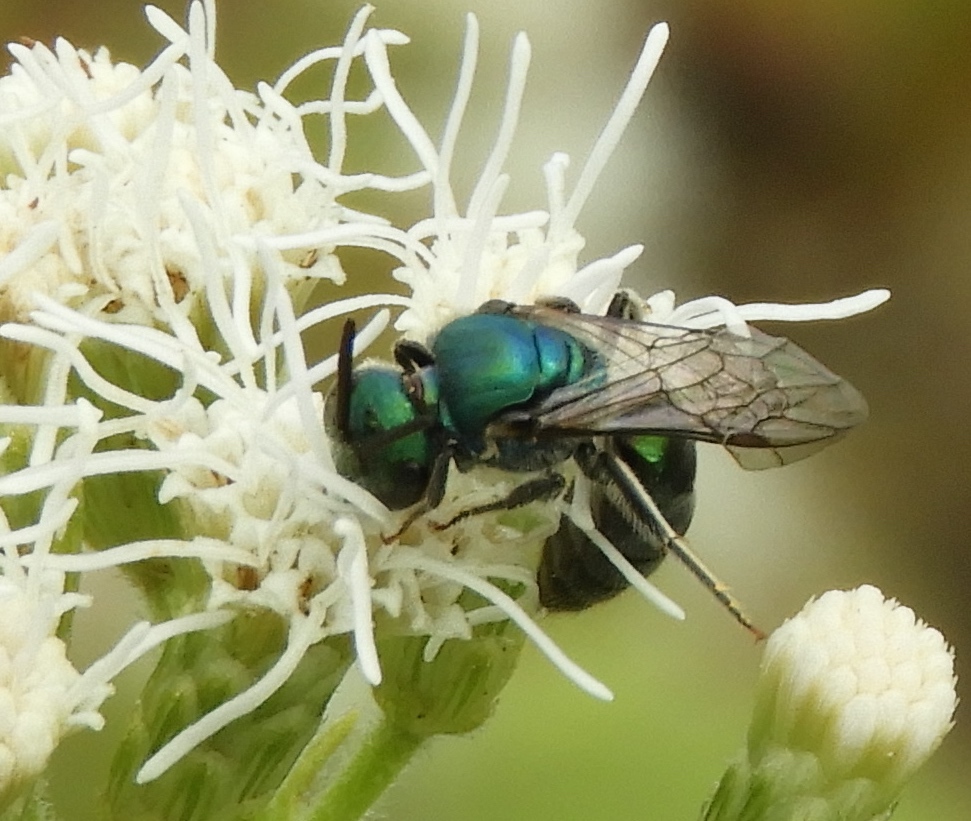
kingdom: Animalia
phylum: Arthropoda
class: Insecta
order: Hymenoptera
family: Halictidae
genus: Augochlora
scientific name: Augochlora
